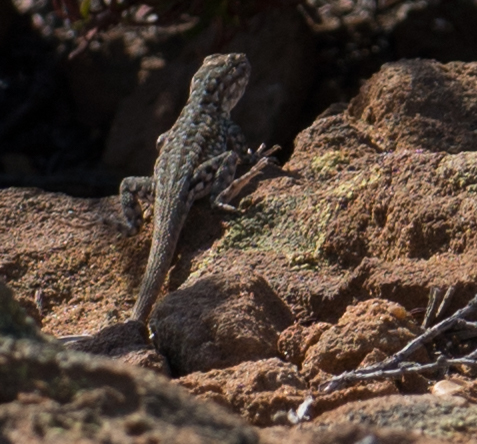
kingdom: Animalia
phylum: Chordata
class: Squamata
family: Phrynosomatidae
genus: Uta
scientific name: Uta stansburiana
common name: Side-blotched lizard
